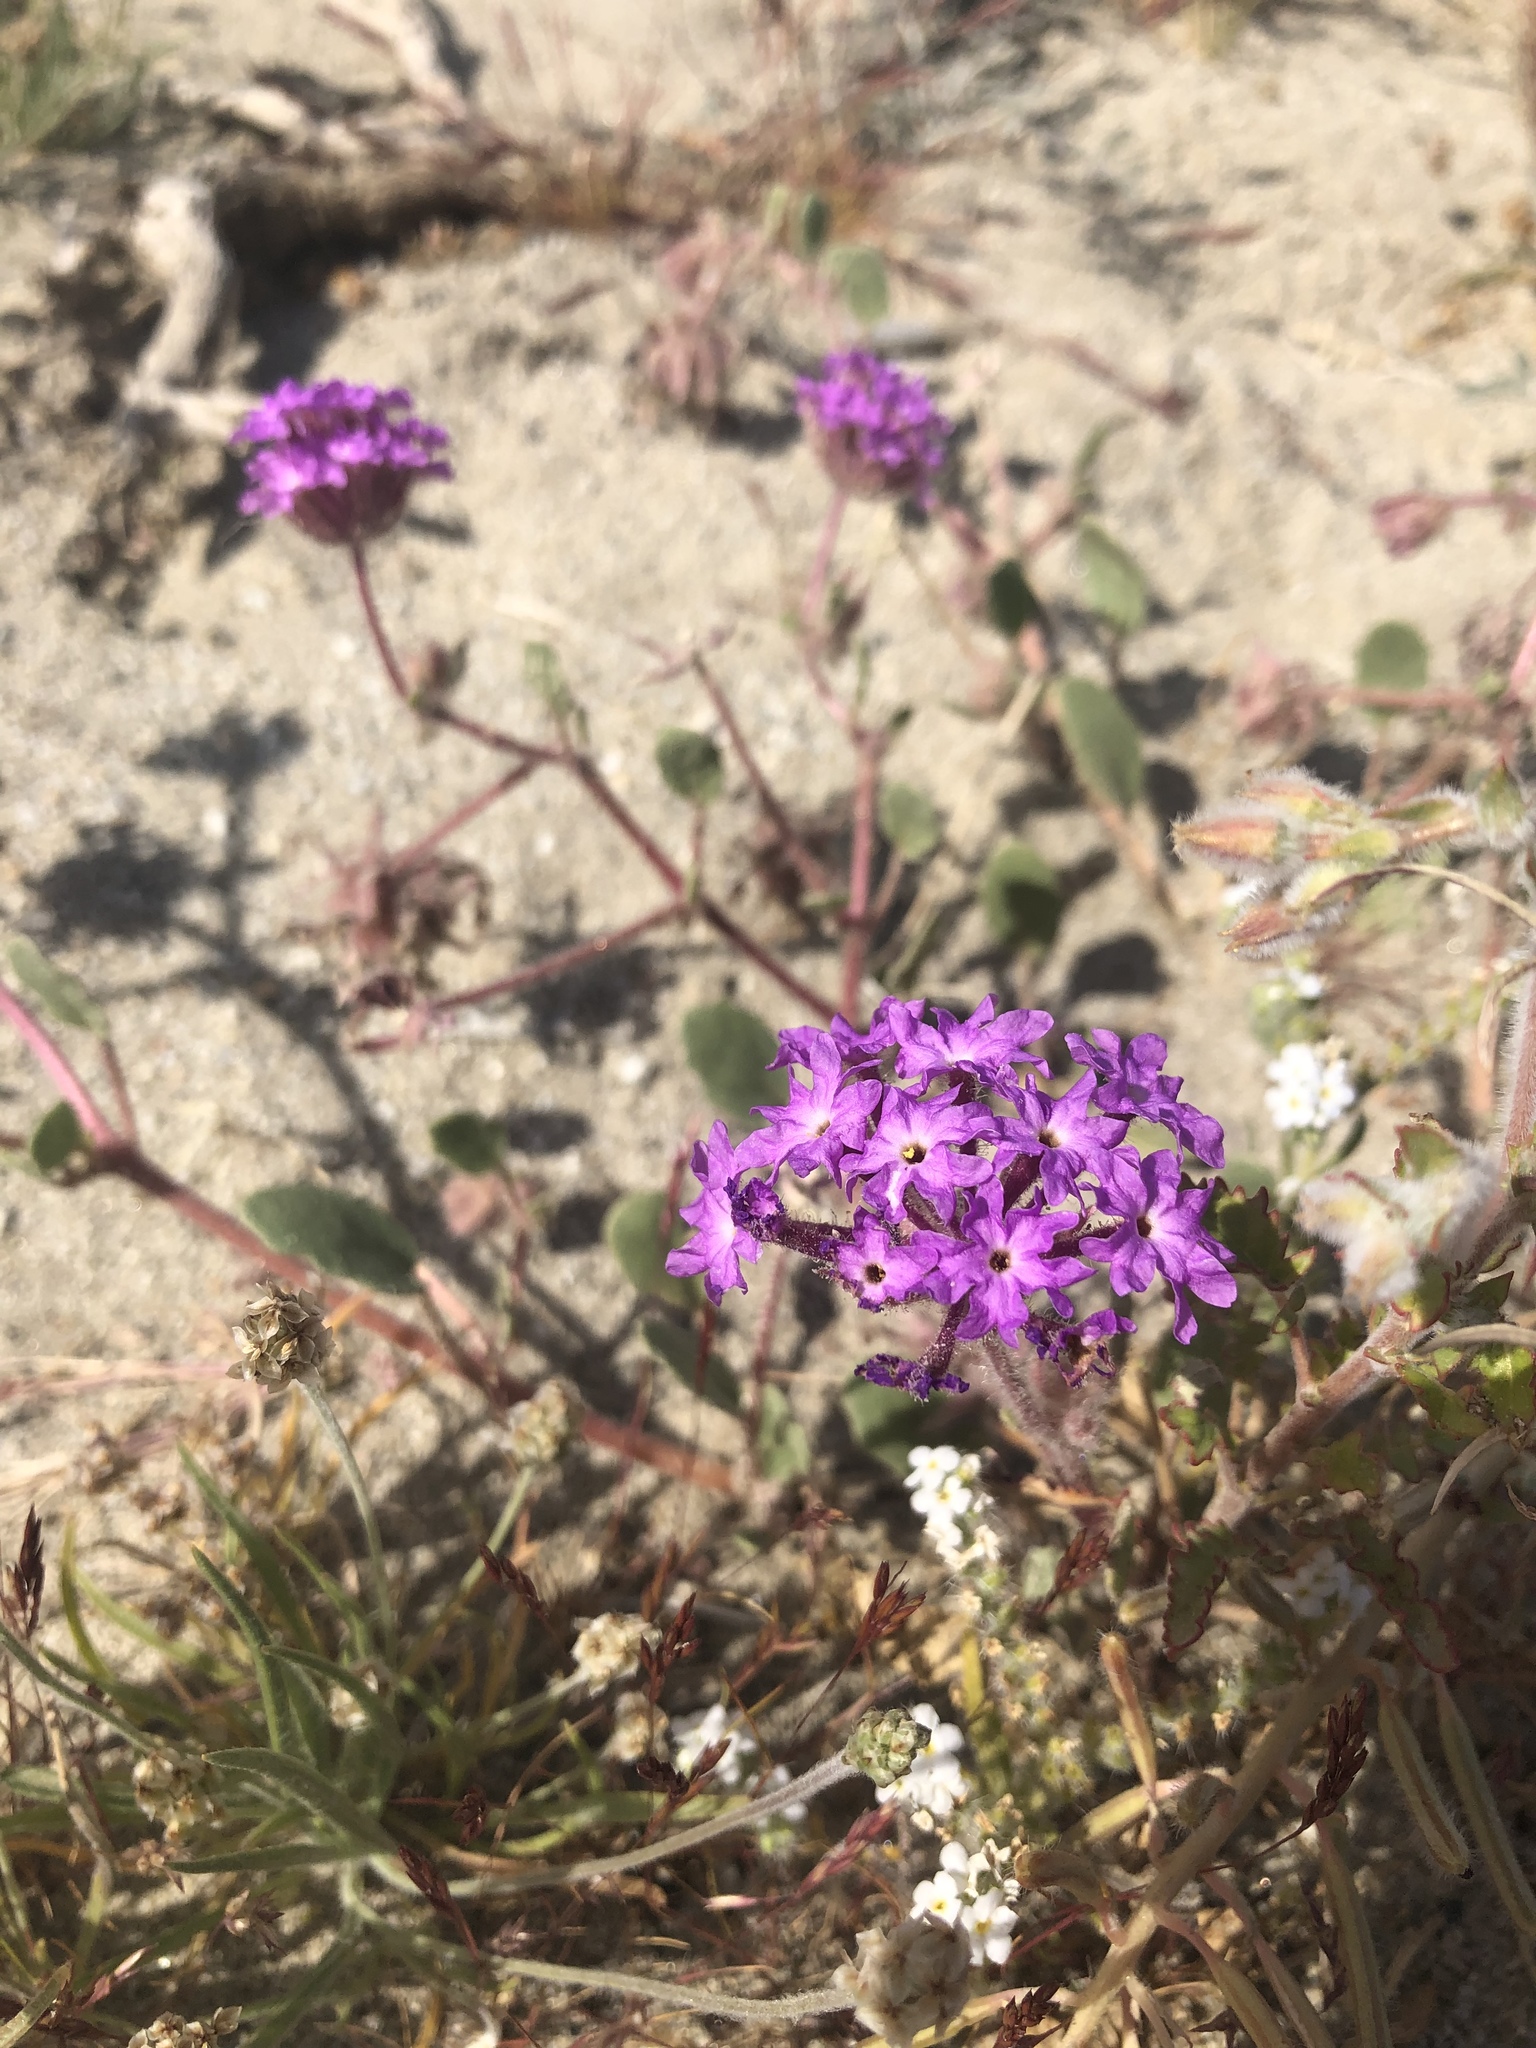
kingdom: Plantae
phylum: Tracheophyta
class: Magnoliopsida
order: Caryophyllales
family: Nyctaginaceae
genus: Abronia
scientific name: Abronia villosa
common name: Desert sand-verbena
